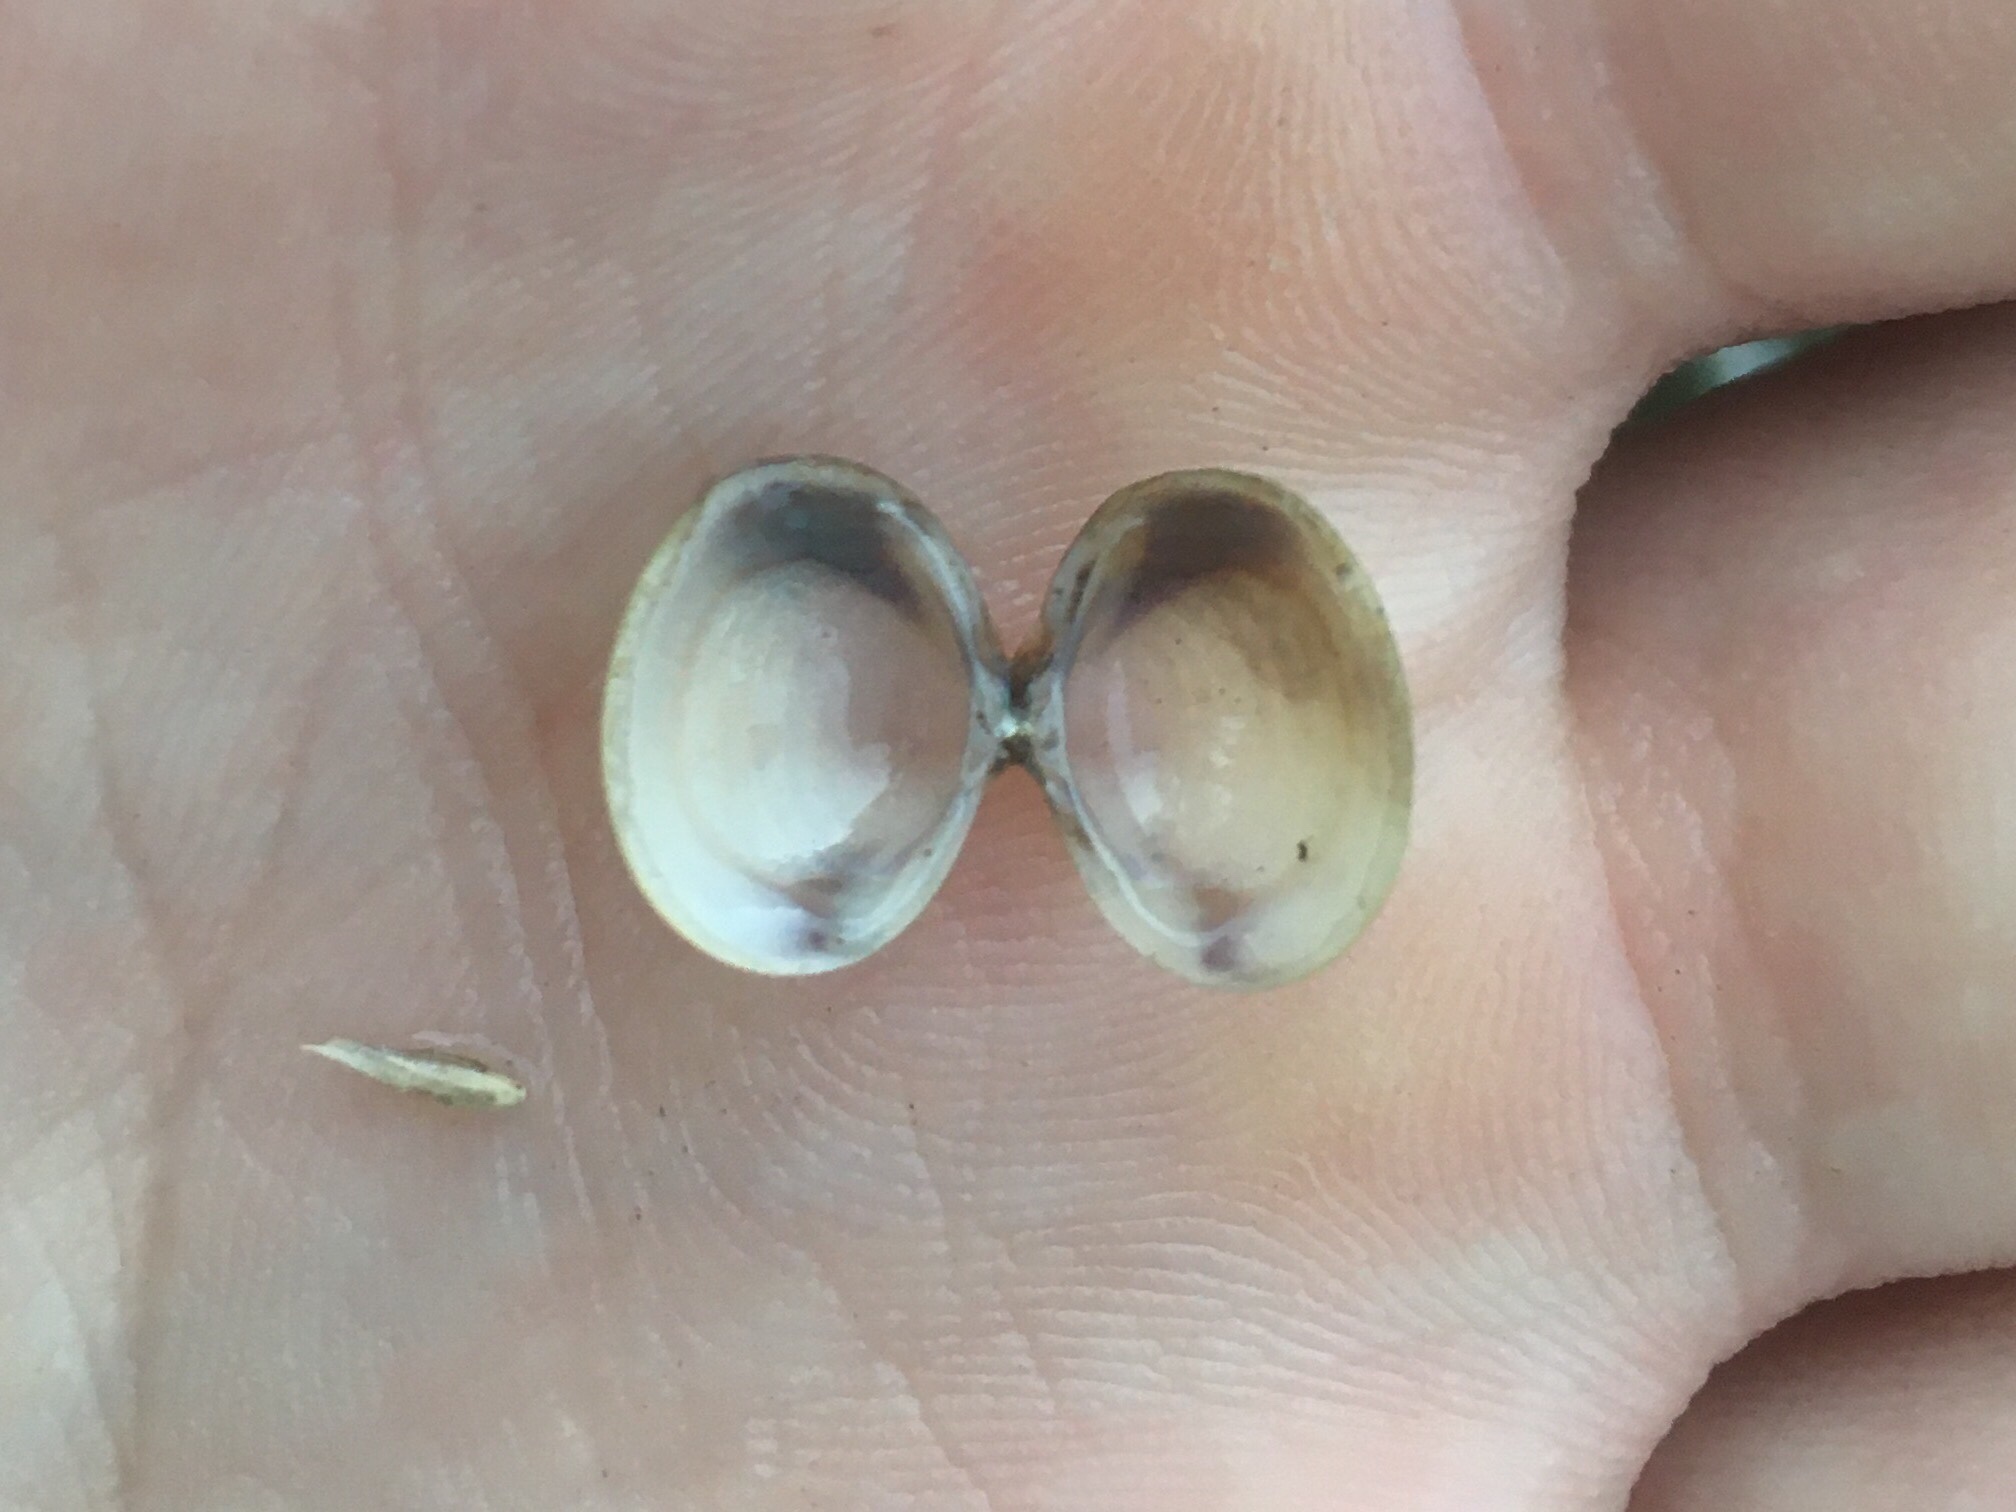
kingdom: Animalia
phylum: Mollusca
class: Bivalvia
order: Venerida
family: Cyrenidae
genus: Corbicula
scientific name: Corbicula fluminea
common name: Asian clam
